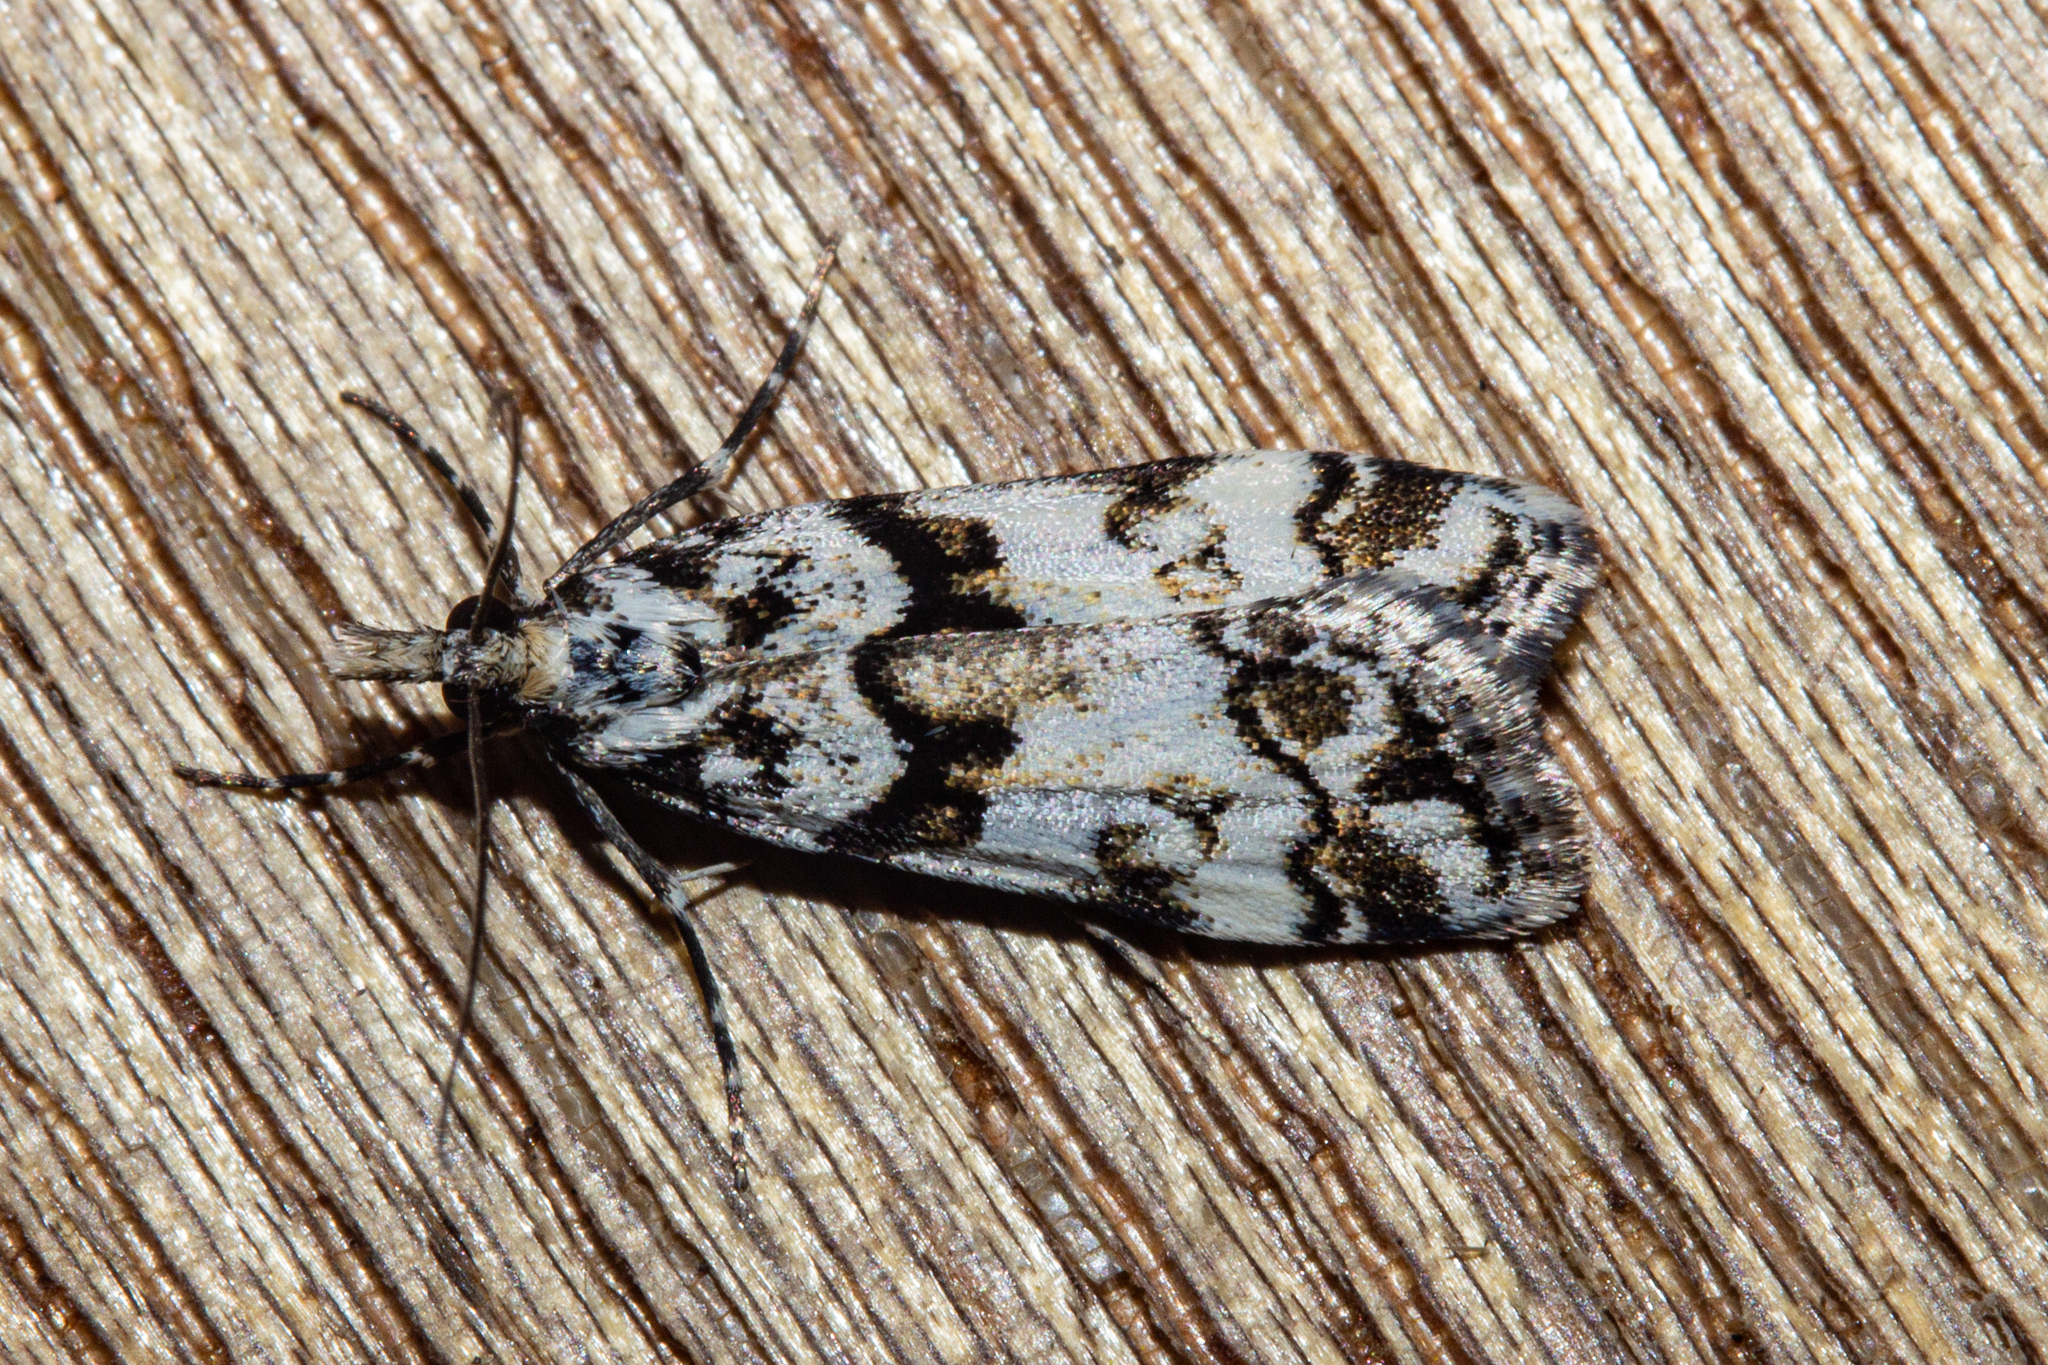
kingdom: Animalia
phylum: Arthropoda
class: Insecta
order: Lepidoptera
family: Crambidae
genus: Eudonia
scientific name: Eudonia torodes
